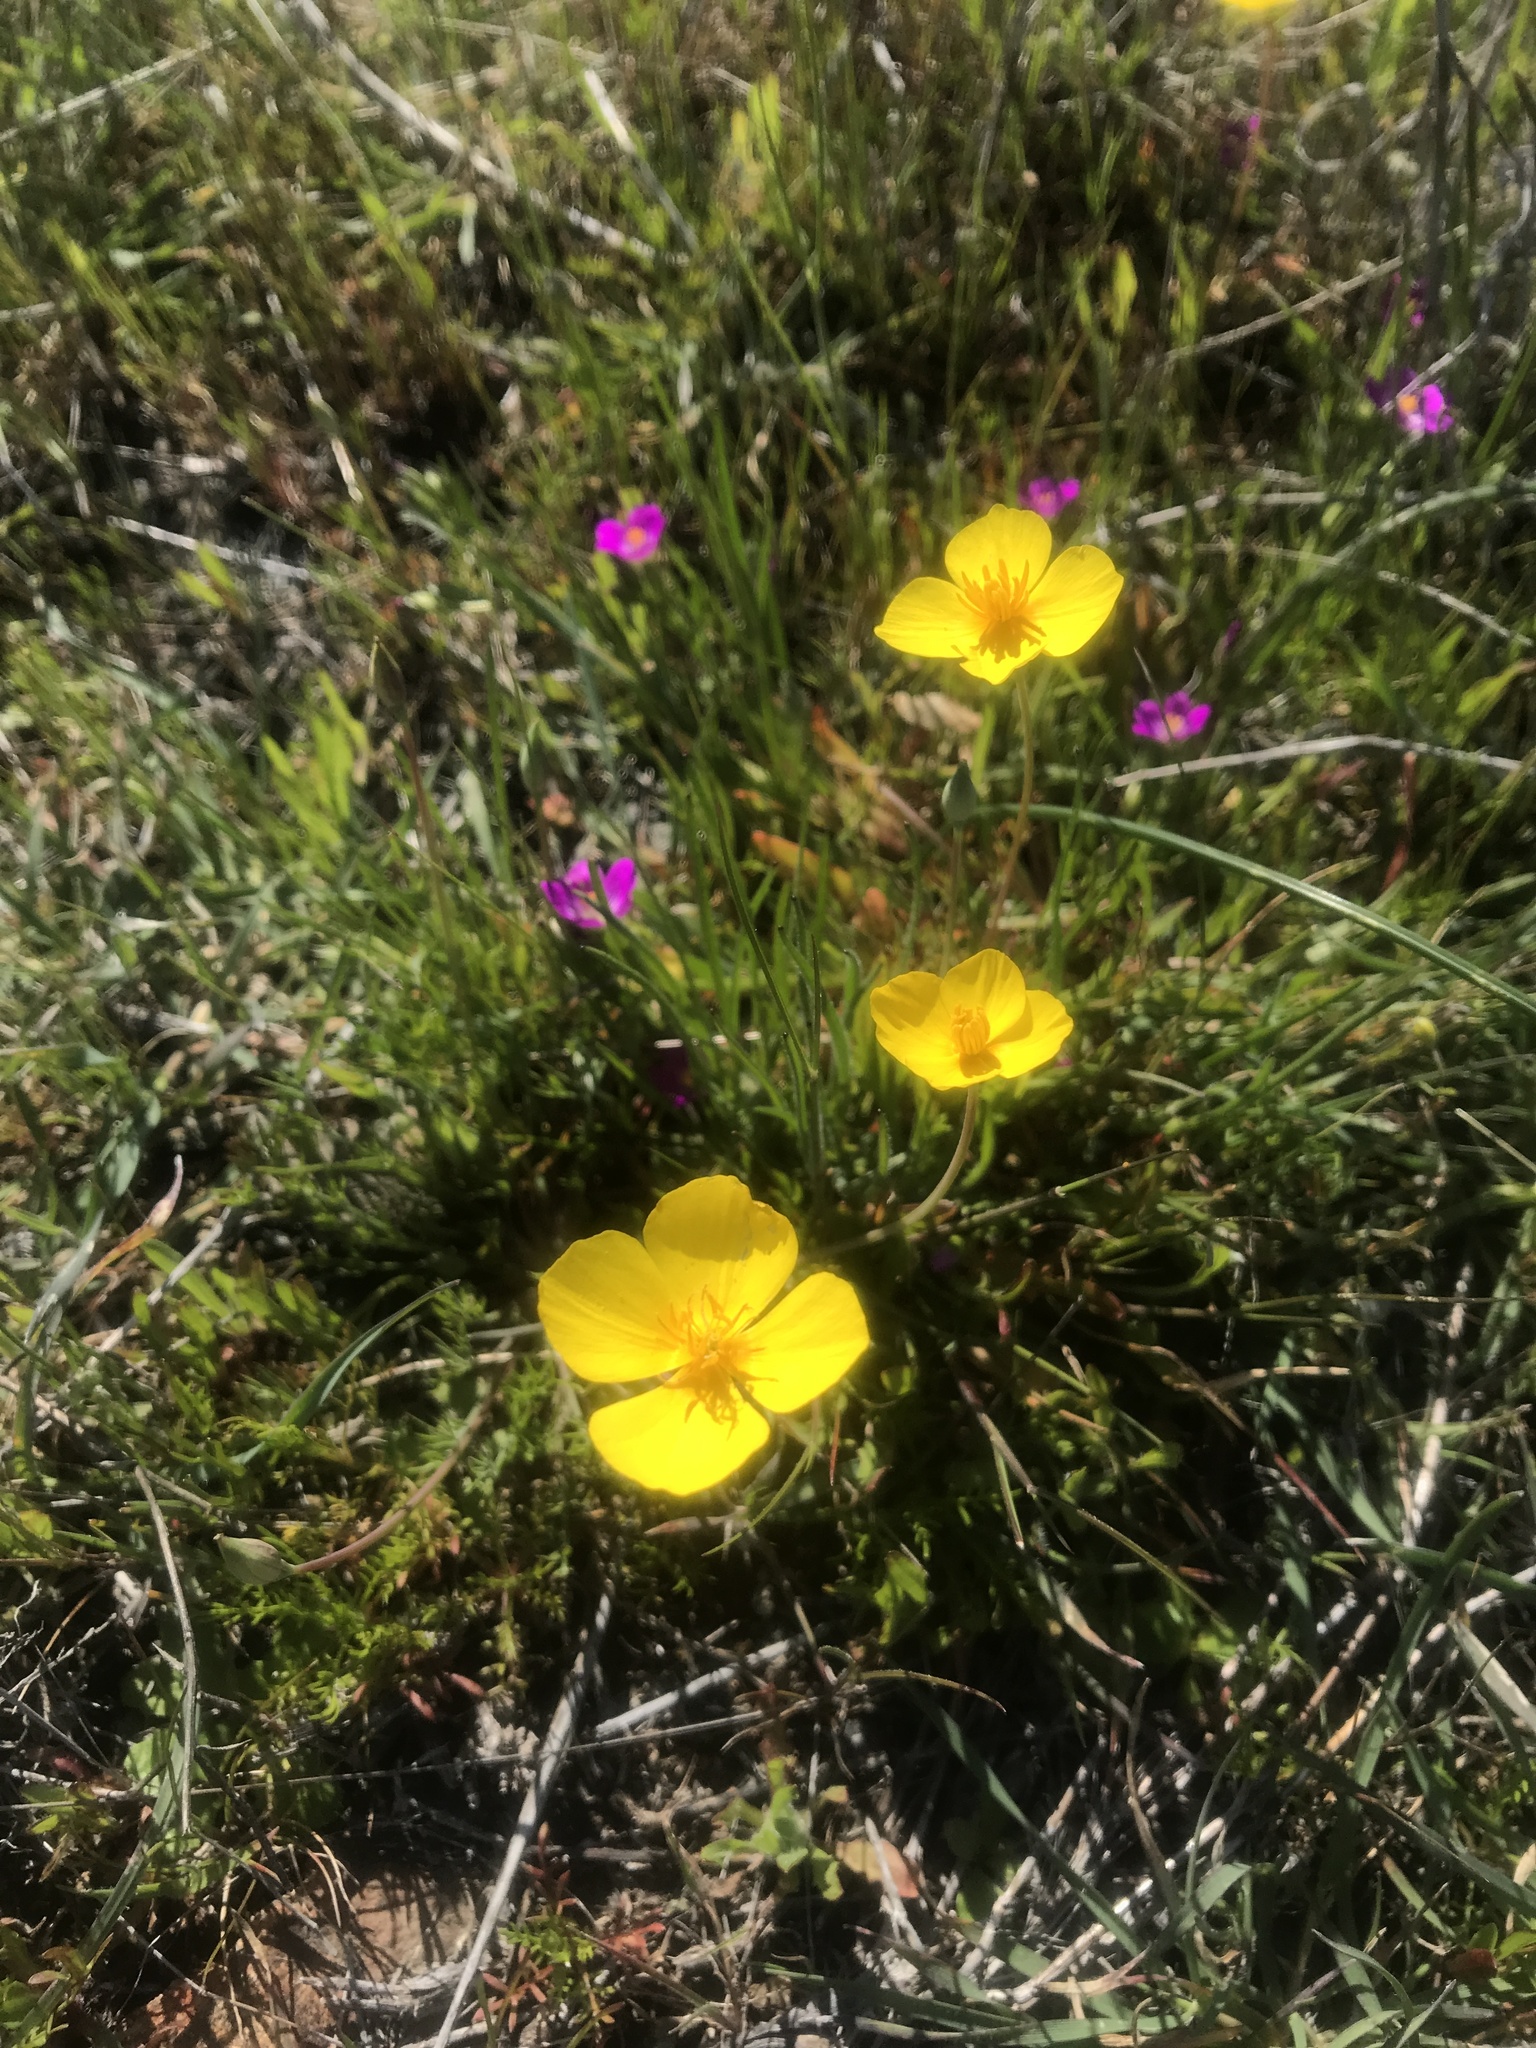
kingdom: Plantae
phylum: Tracheophyta
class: Magnoliopsida
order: Ranunculales
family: Papaveraceae
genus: Eschscholzia
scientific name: Eschscholzia lobbii
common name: Frying-pans
